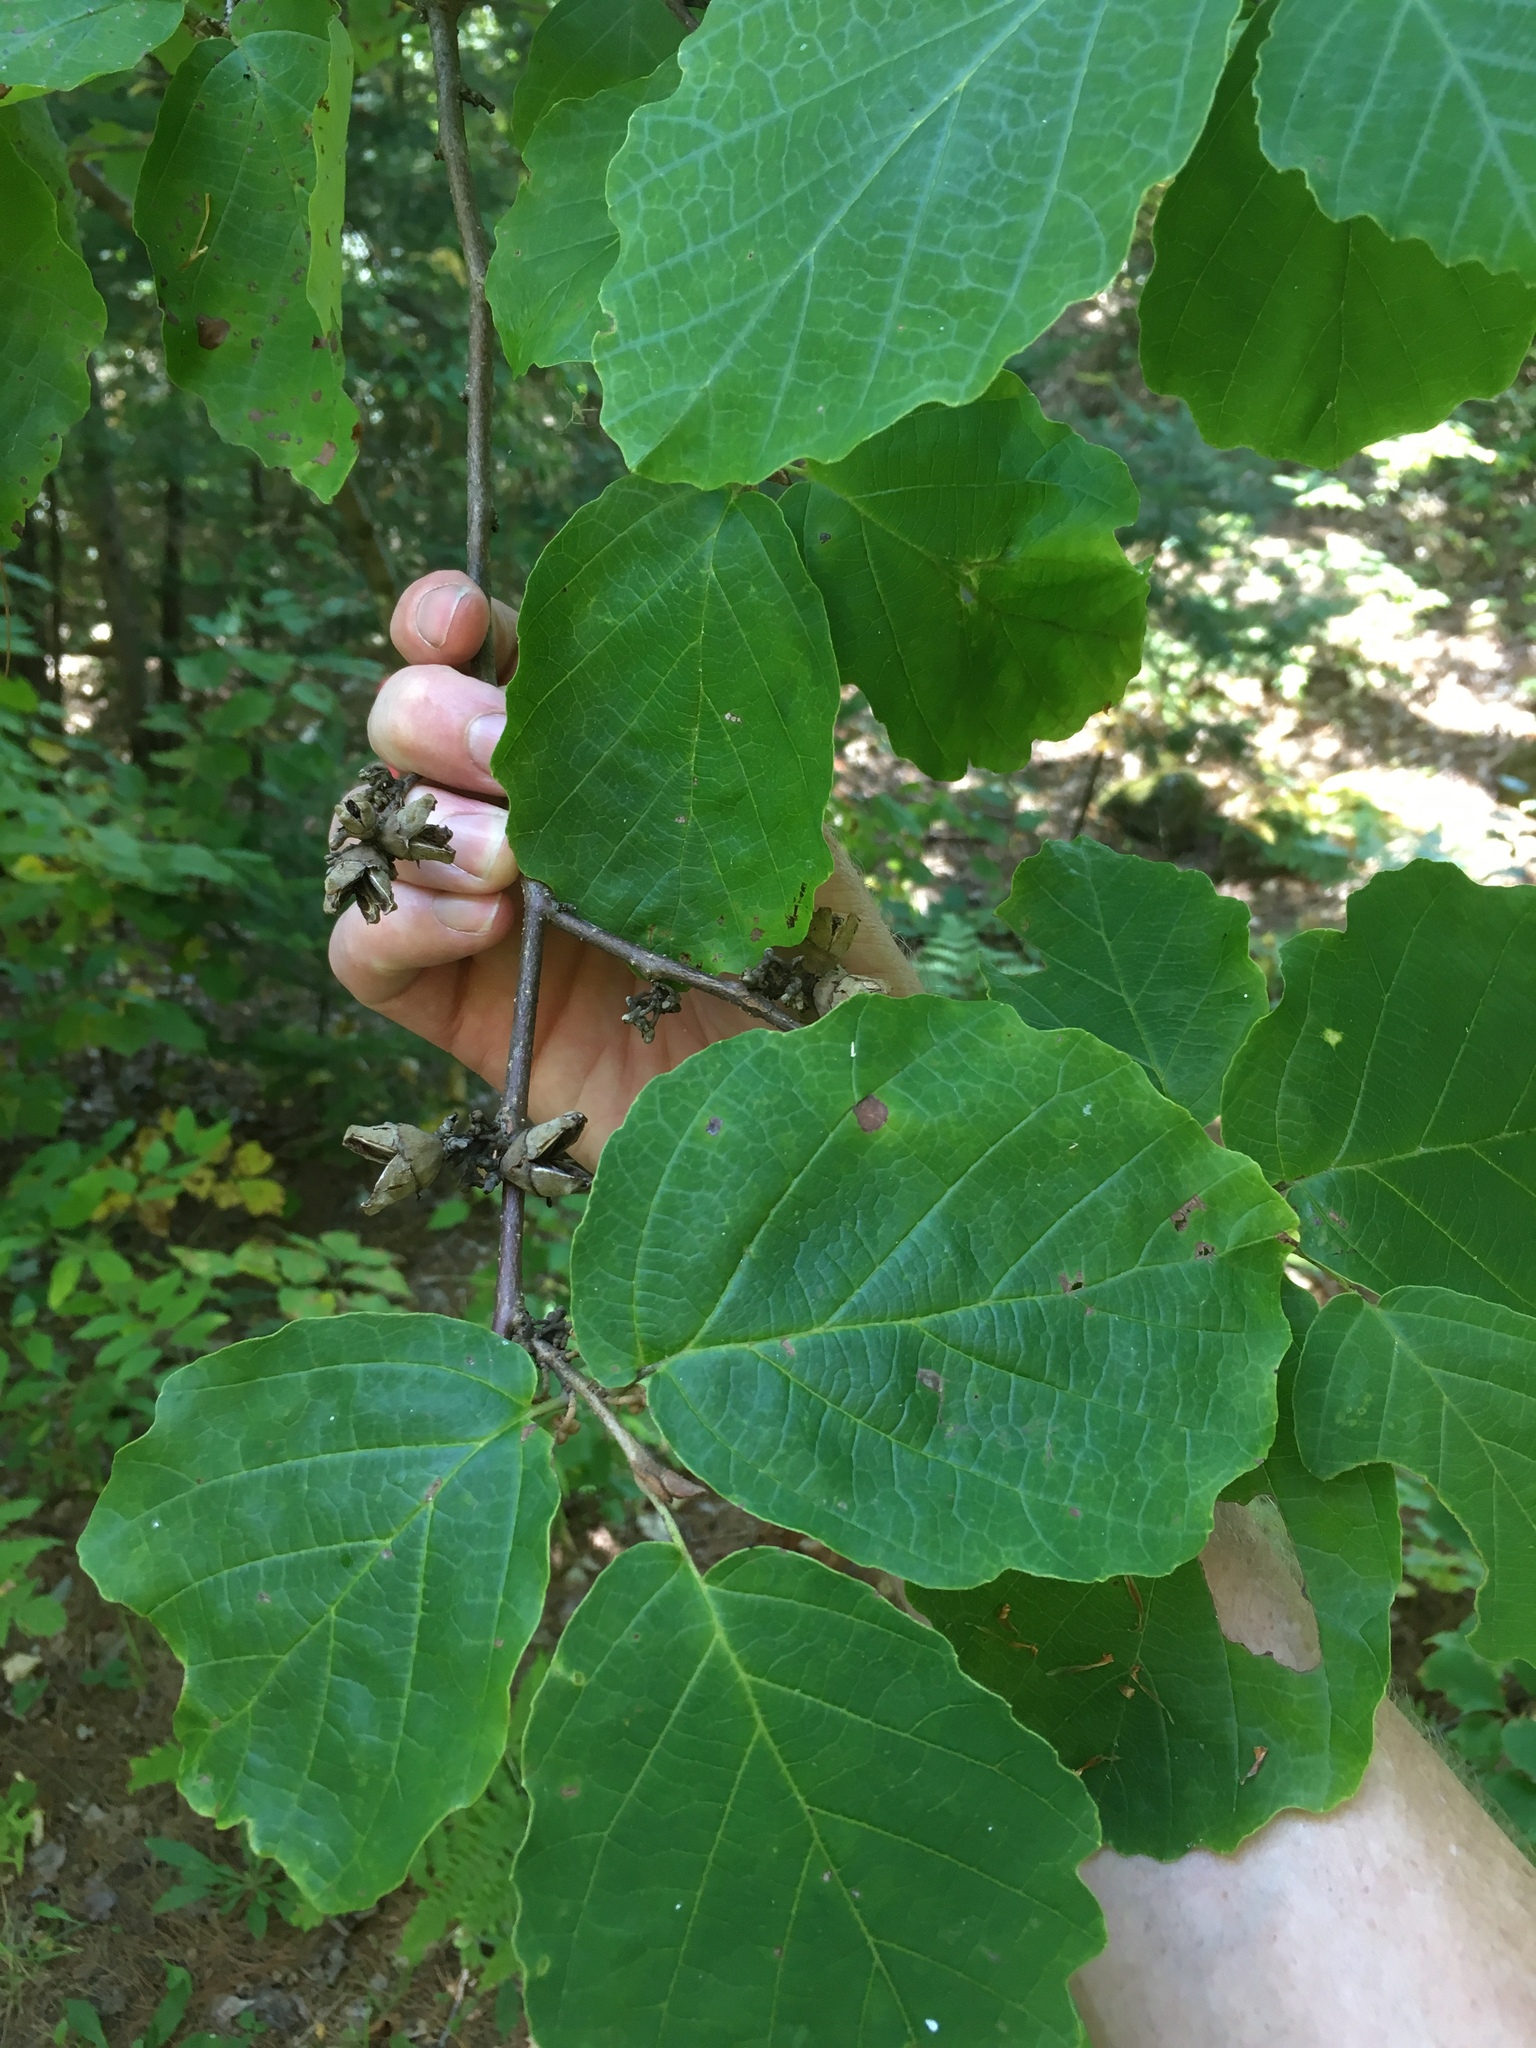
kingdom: Plantae
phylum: Tracheophyta
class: Magnoliopsida
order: Saxifragales
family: Hamamelidaceae
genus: Hamamelis
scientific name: Hamamelis virginiana
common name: Witch-hazel
